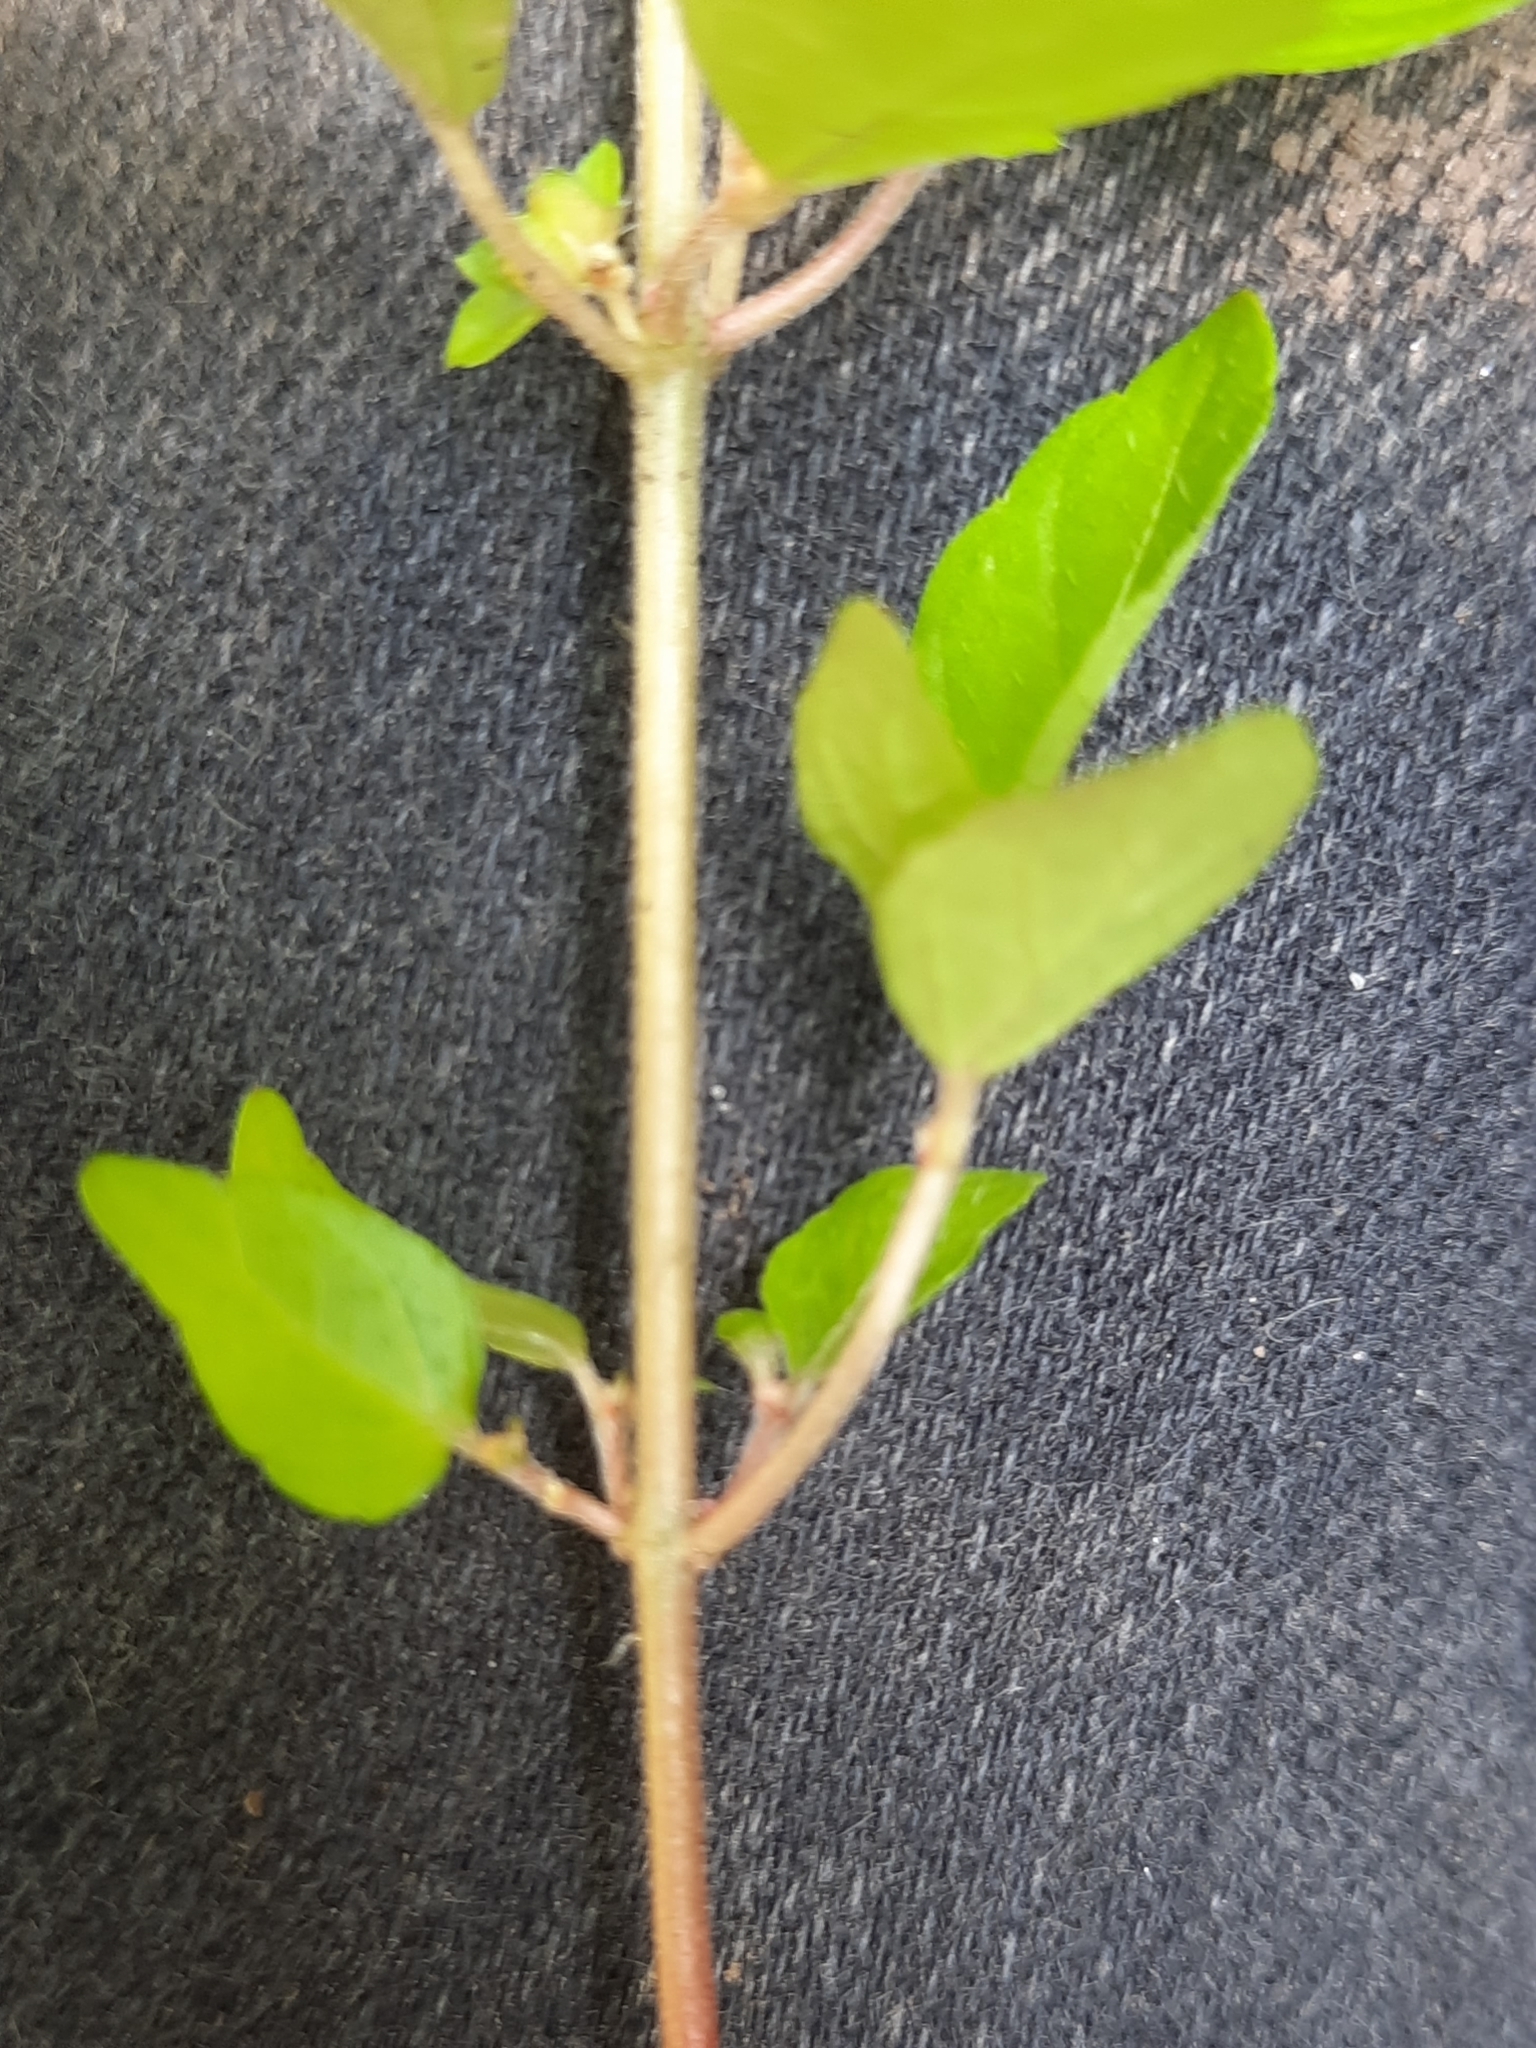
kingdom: Plantae
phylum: Tracheophyta
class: Magnoliopsida
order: Malpighiales
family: Euphorbiaceae
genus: Acalypha
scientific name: Acalypha rhomboidea
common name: Rhombic copperleaf
